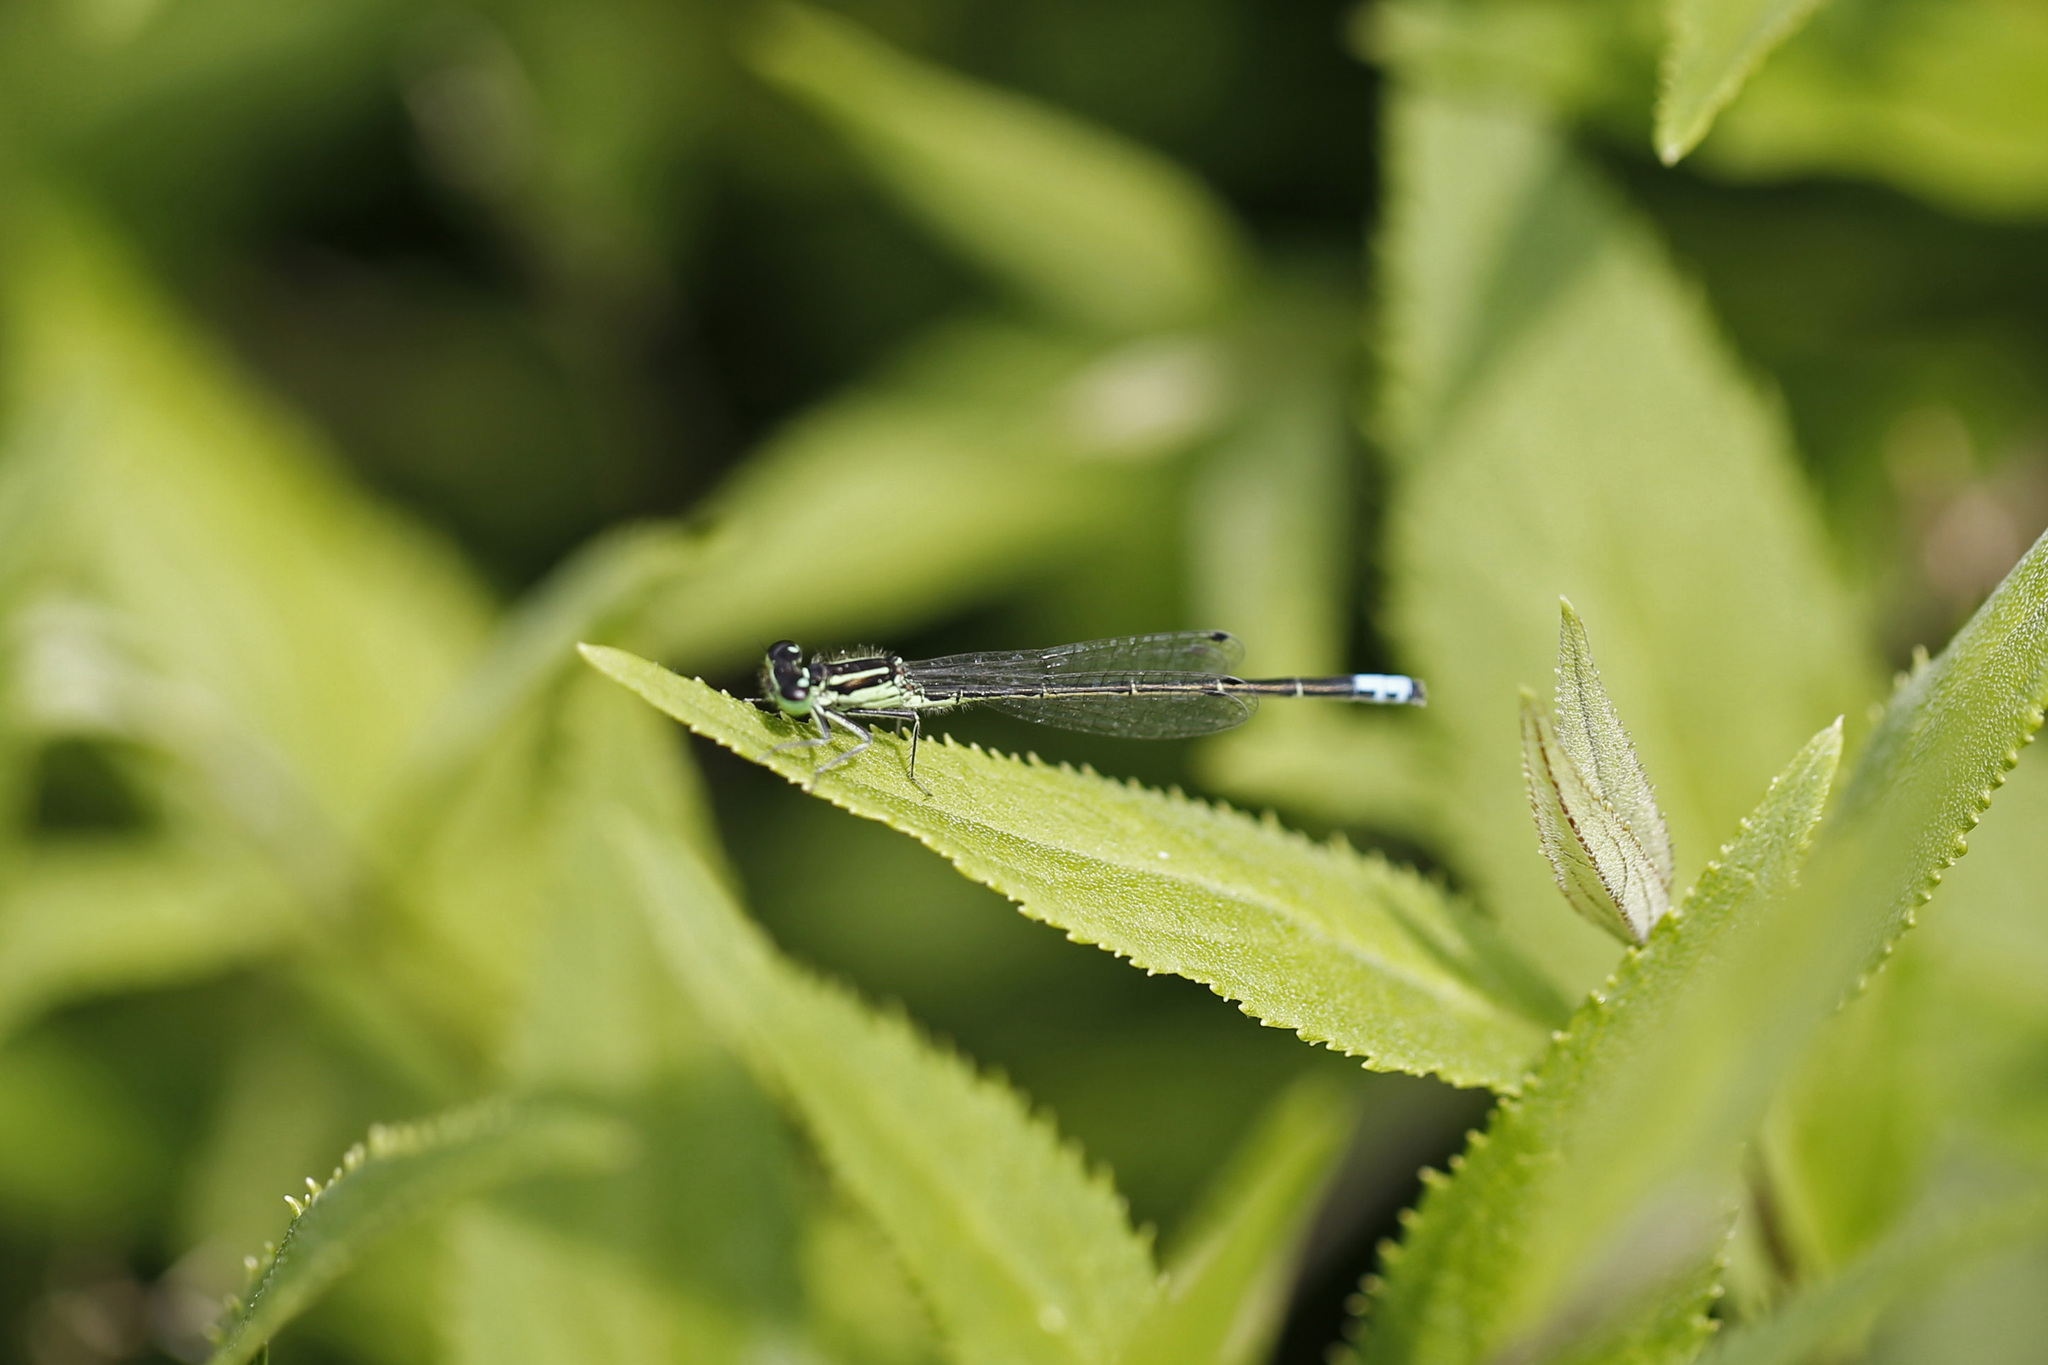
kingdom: Animalia
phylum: Arthropoda
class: Insecta
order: Odonata
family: Coenagrionidae
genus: Ischnura
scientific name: Ischnura verticalis
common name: Eastern forktail
